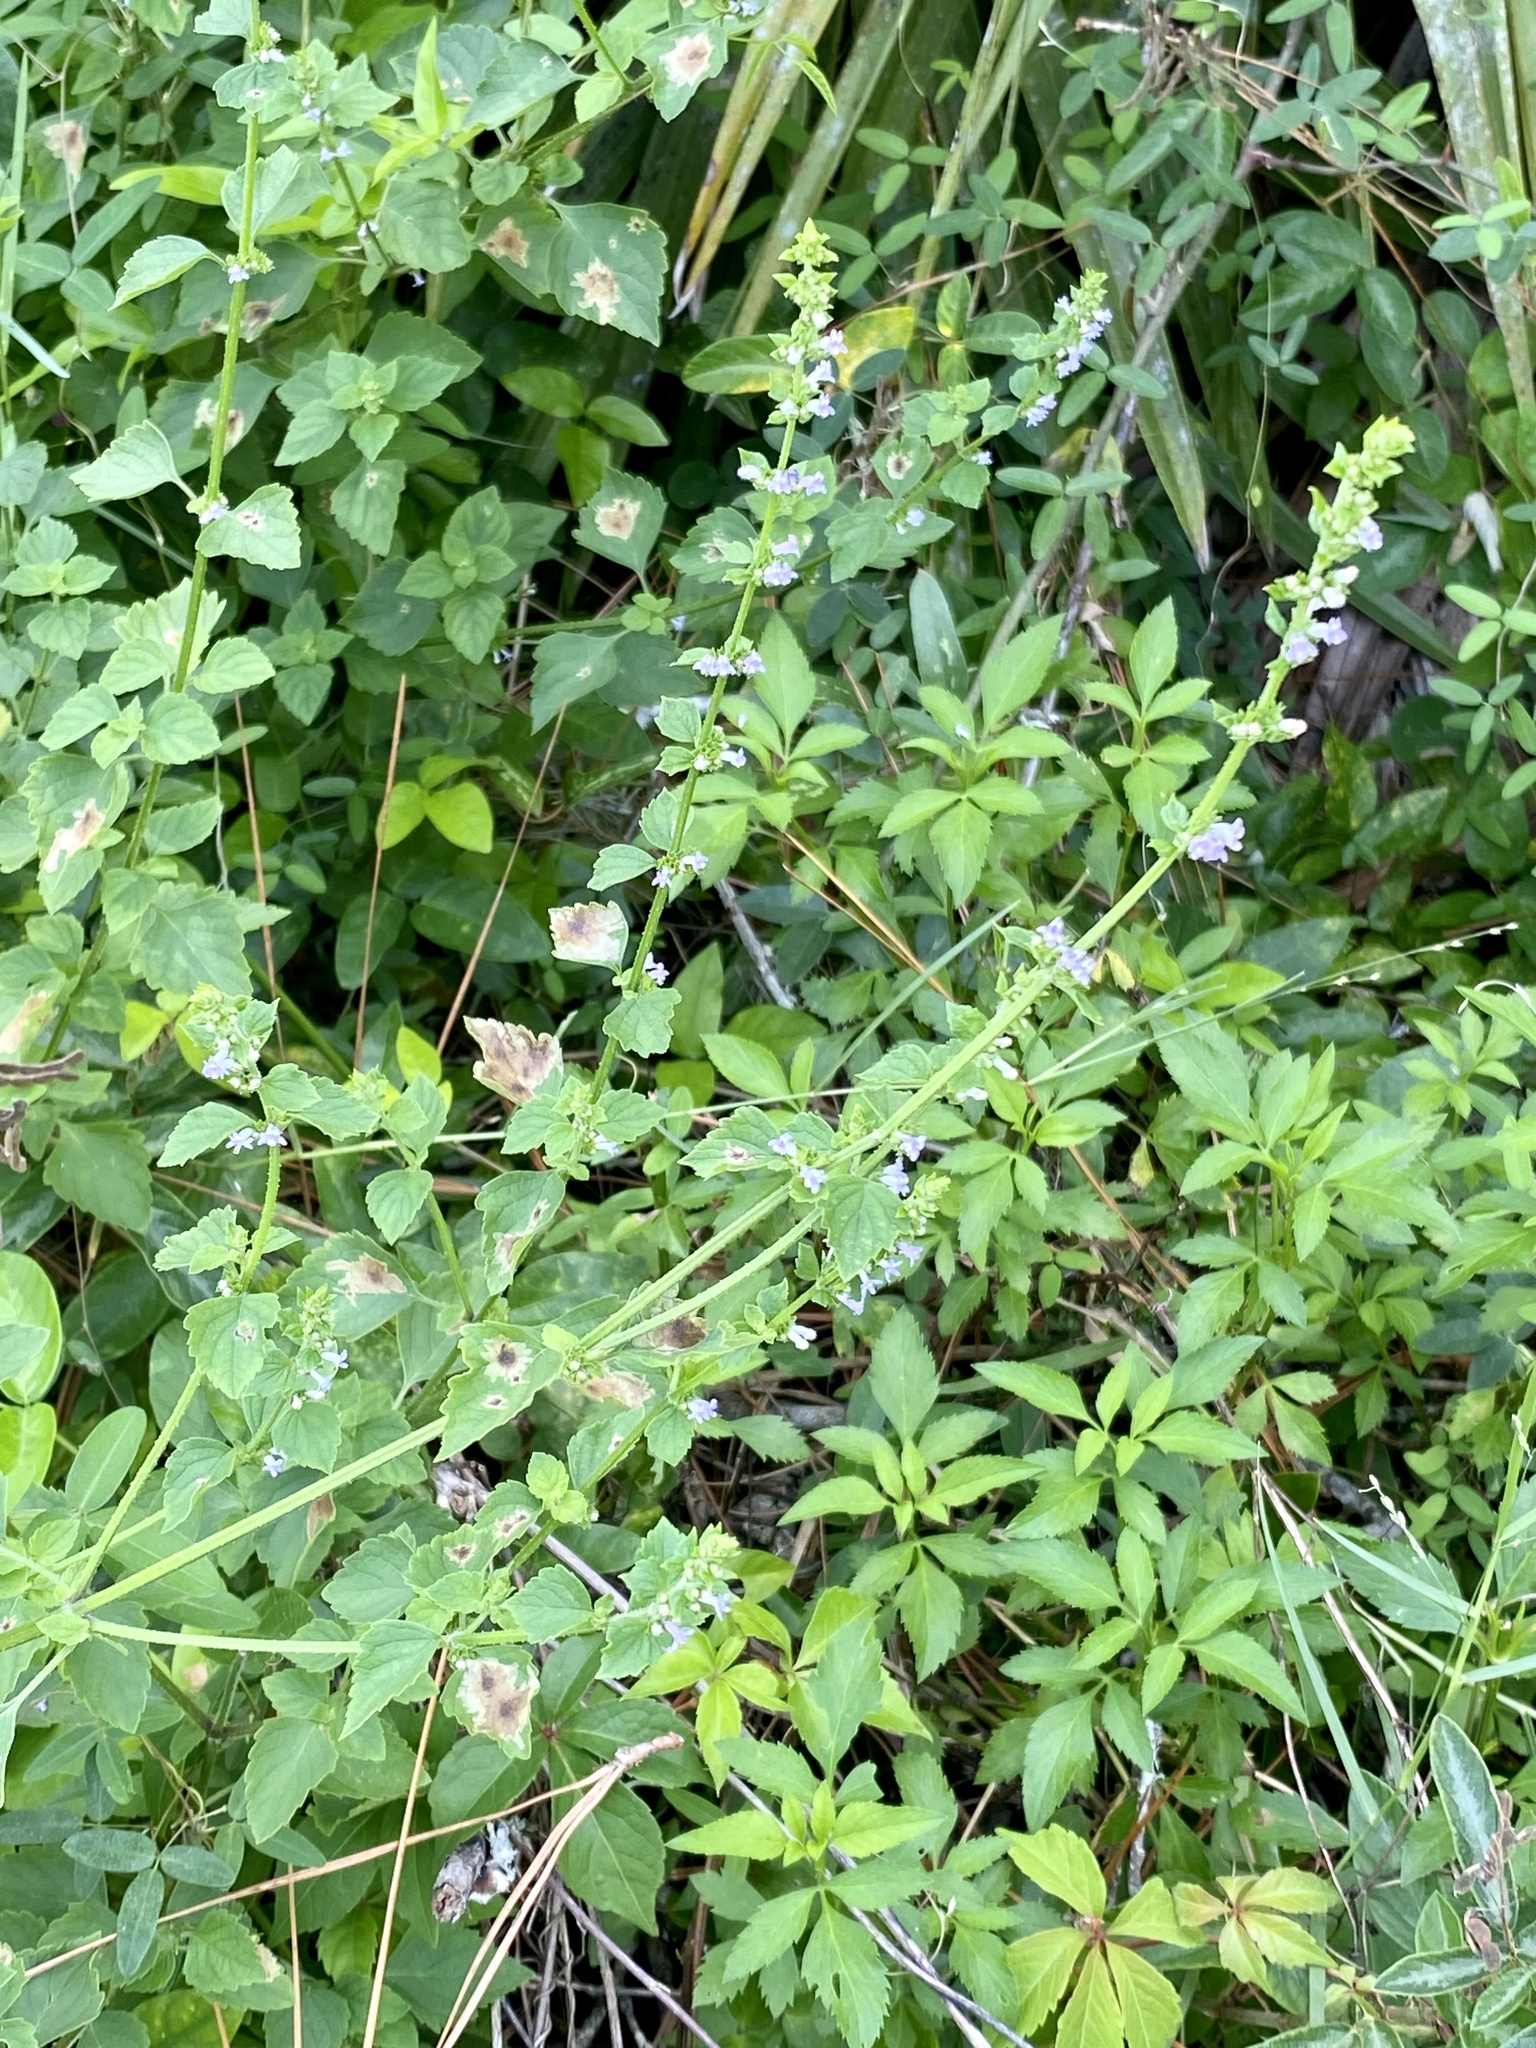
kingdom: Plantae
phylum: Tracheophyta
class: Magnoliopsida
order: Lamiales
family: Lamiaceae
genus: Cantinoa
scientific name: Cantinoa mutabilis
